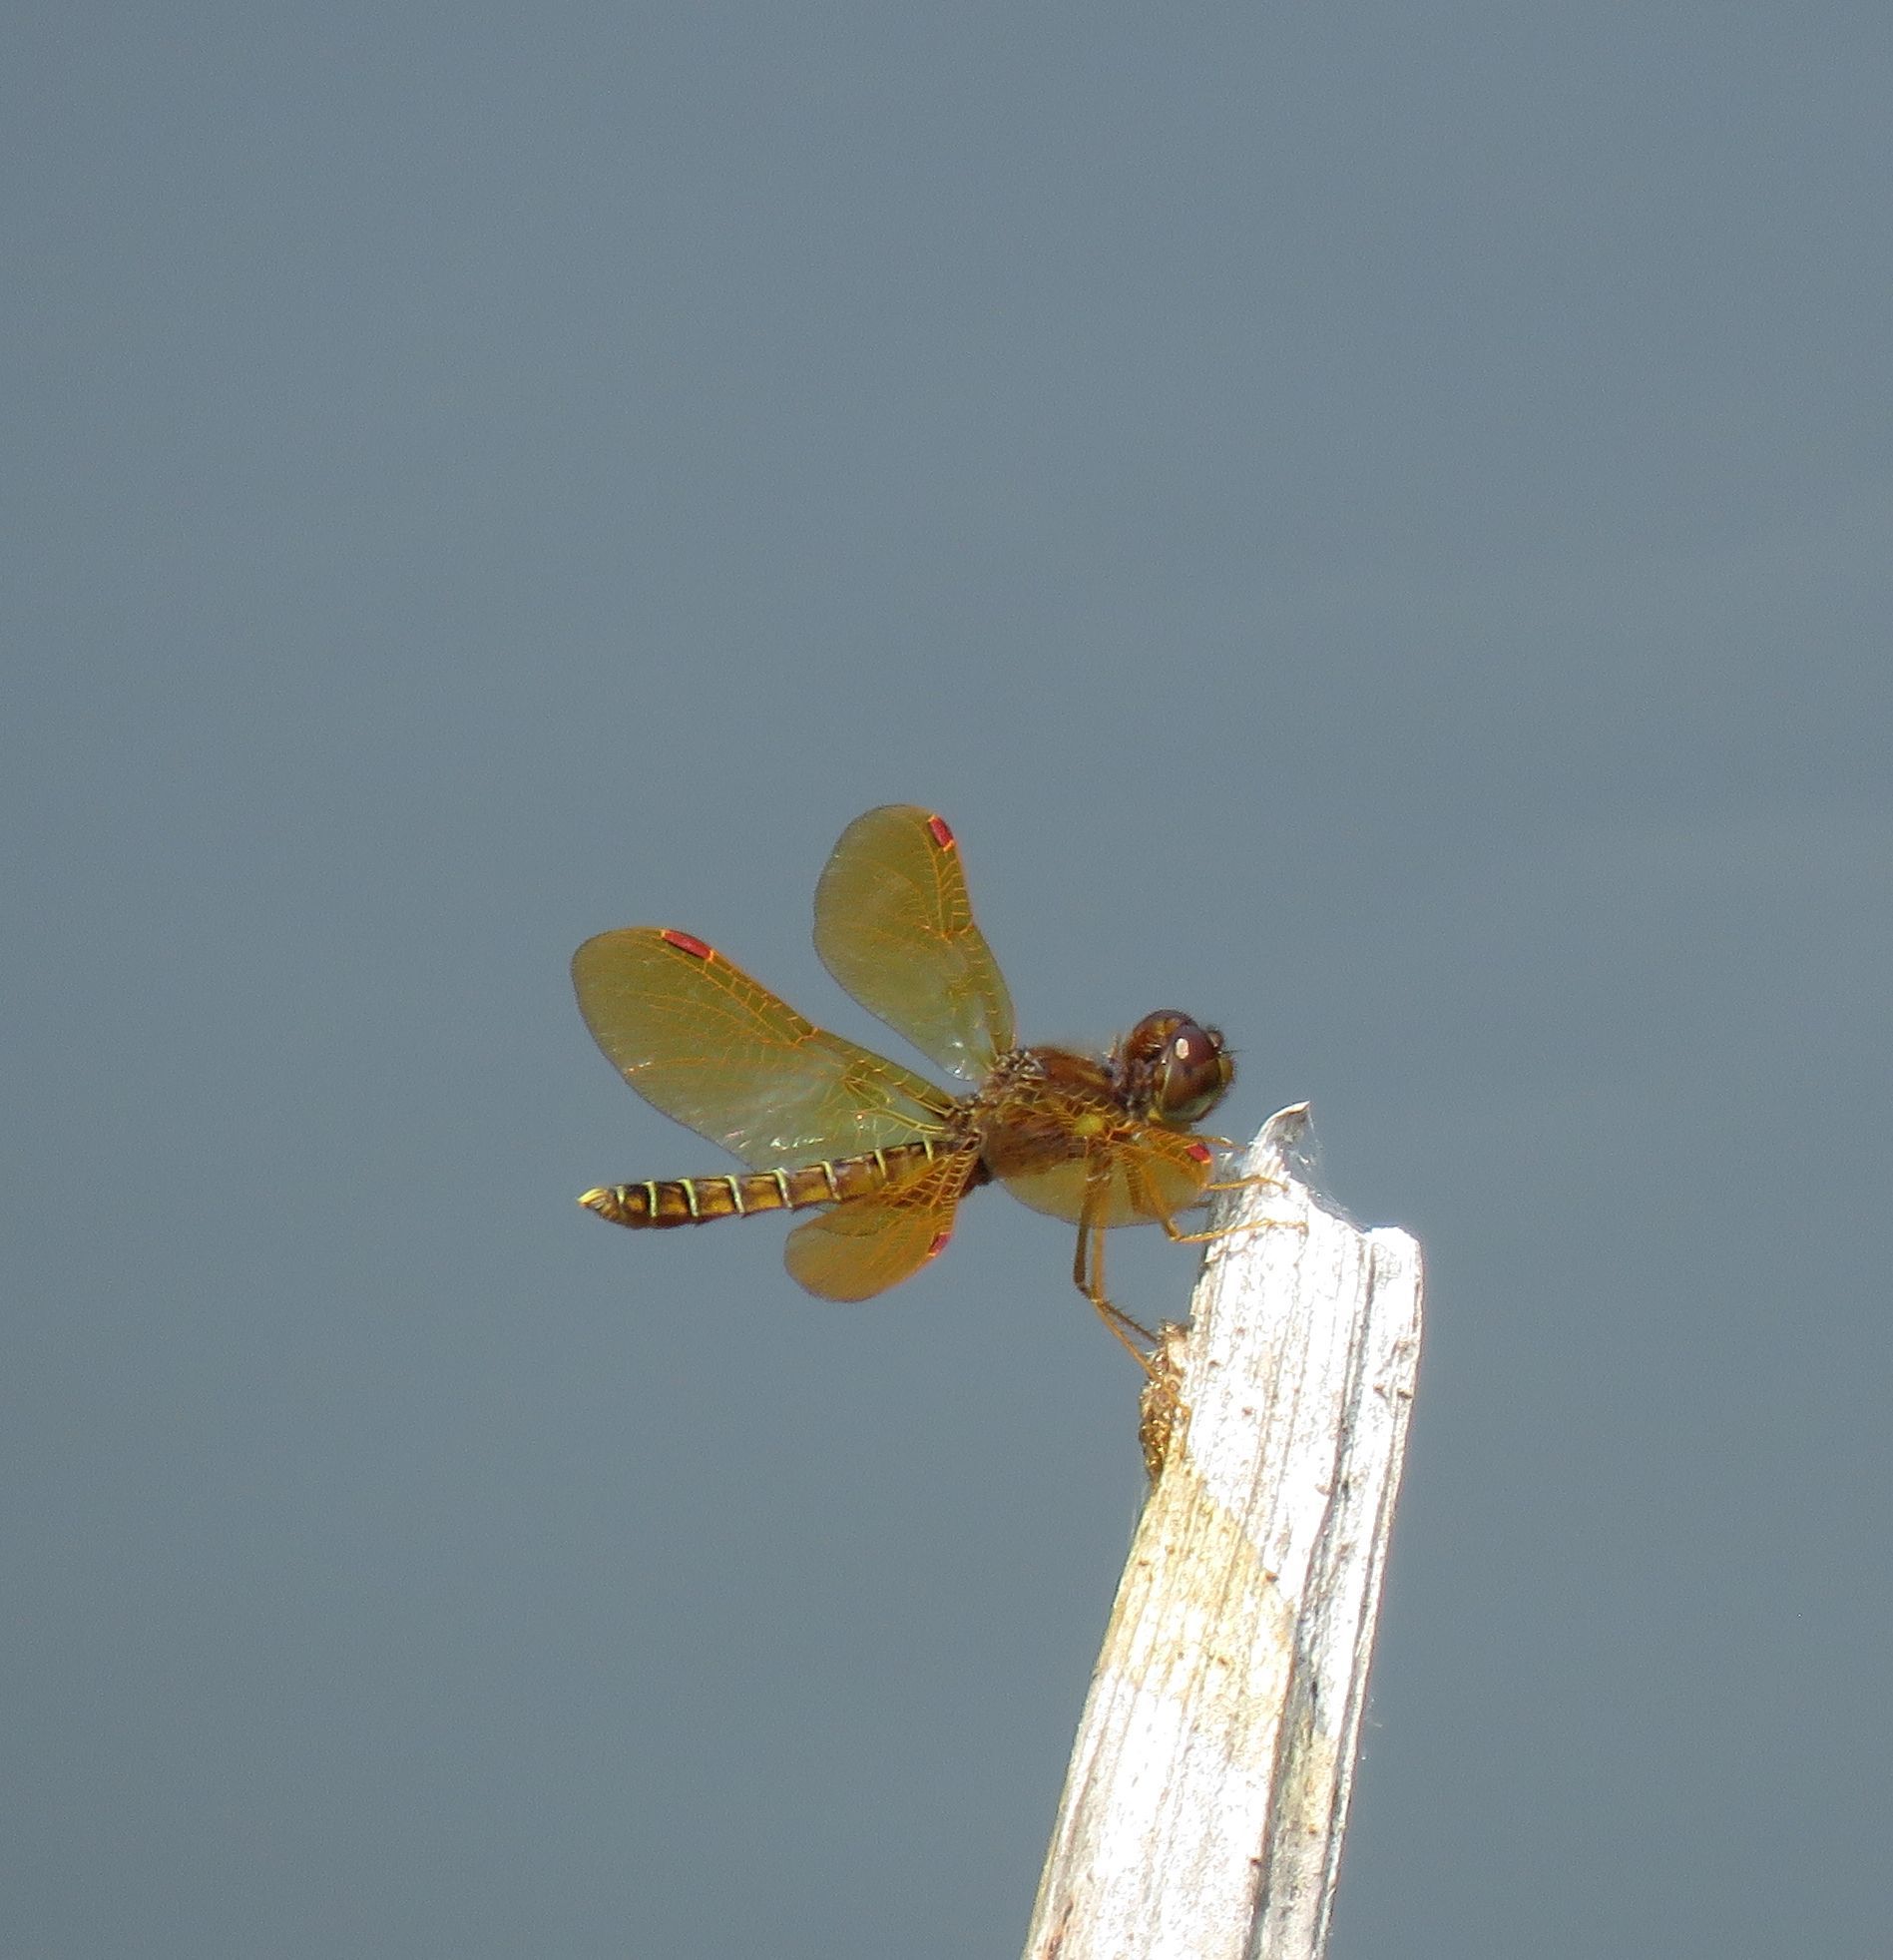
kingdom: Animalia
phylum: Arthropoda
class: Insecta
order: Odonata
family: Libellulidae
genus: Perithemis
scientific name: Perithemis tenera
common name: Eastern amberwing
